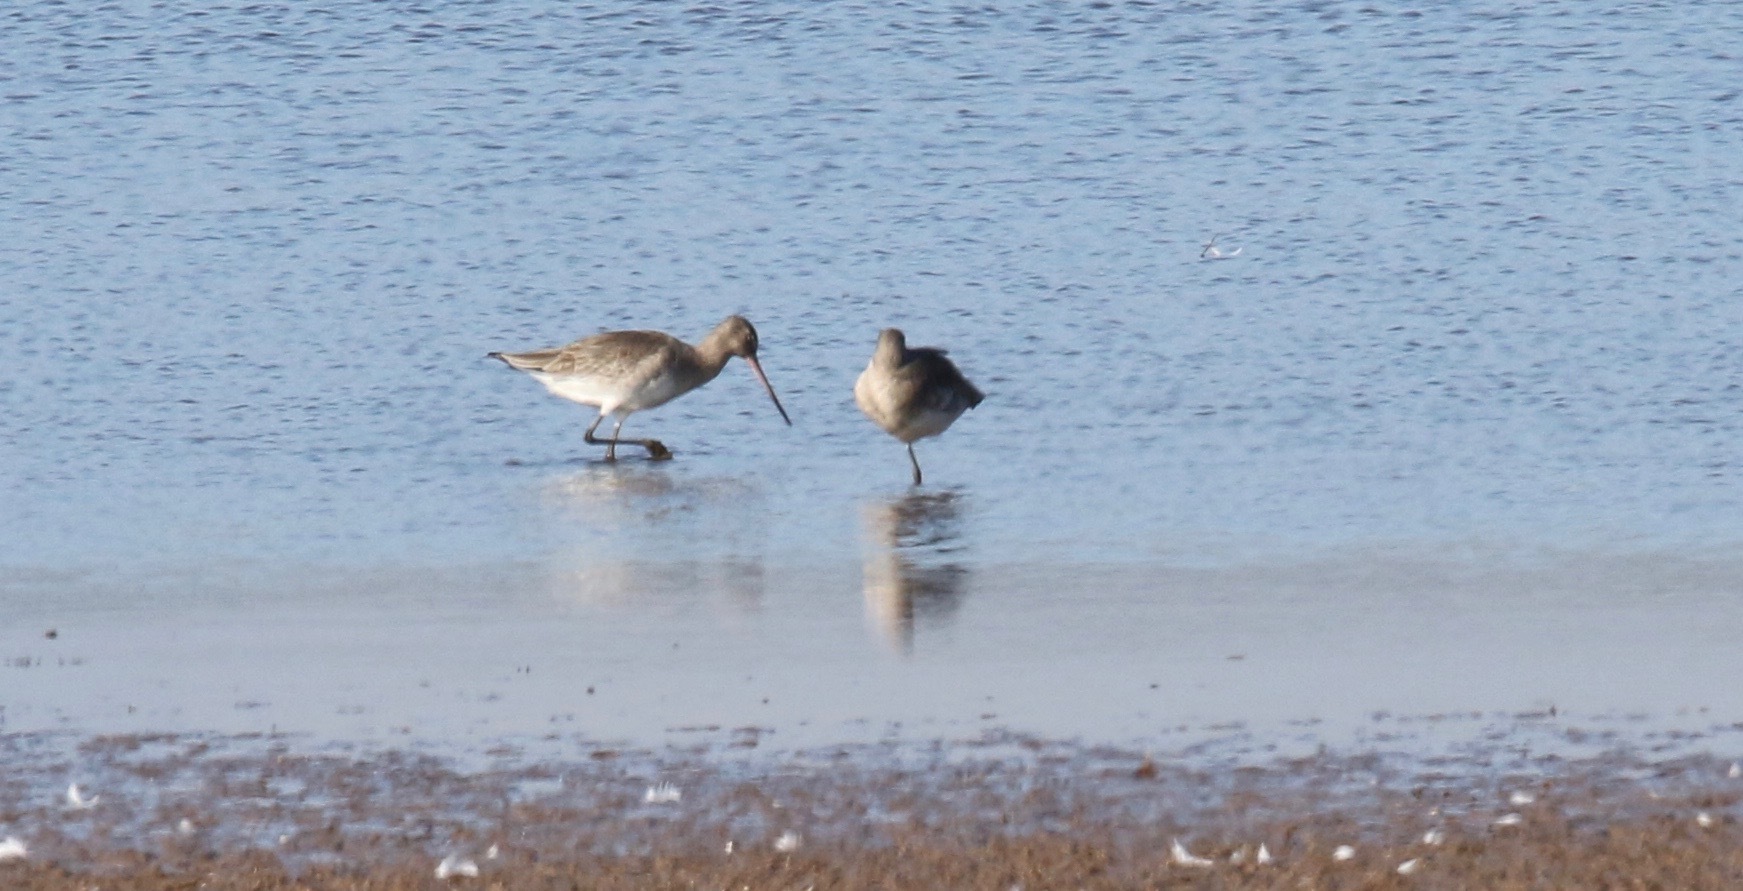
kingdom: Animalia
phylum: Chordata
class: Aves
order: Charadriiformes
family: Scolopacidae
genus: Limosa
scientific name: Limosa limosa
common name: Black-tailed godwit
